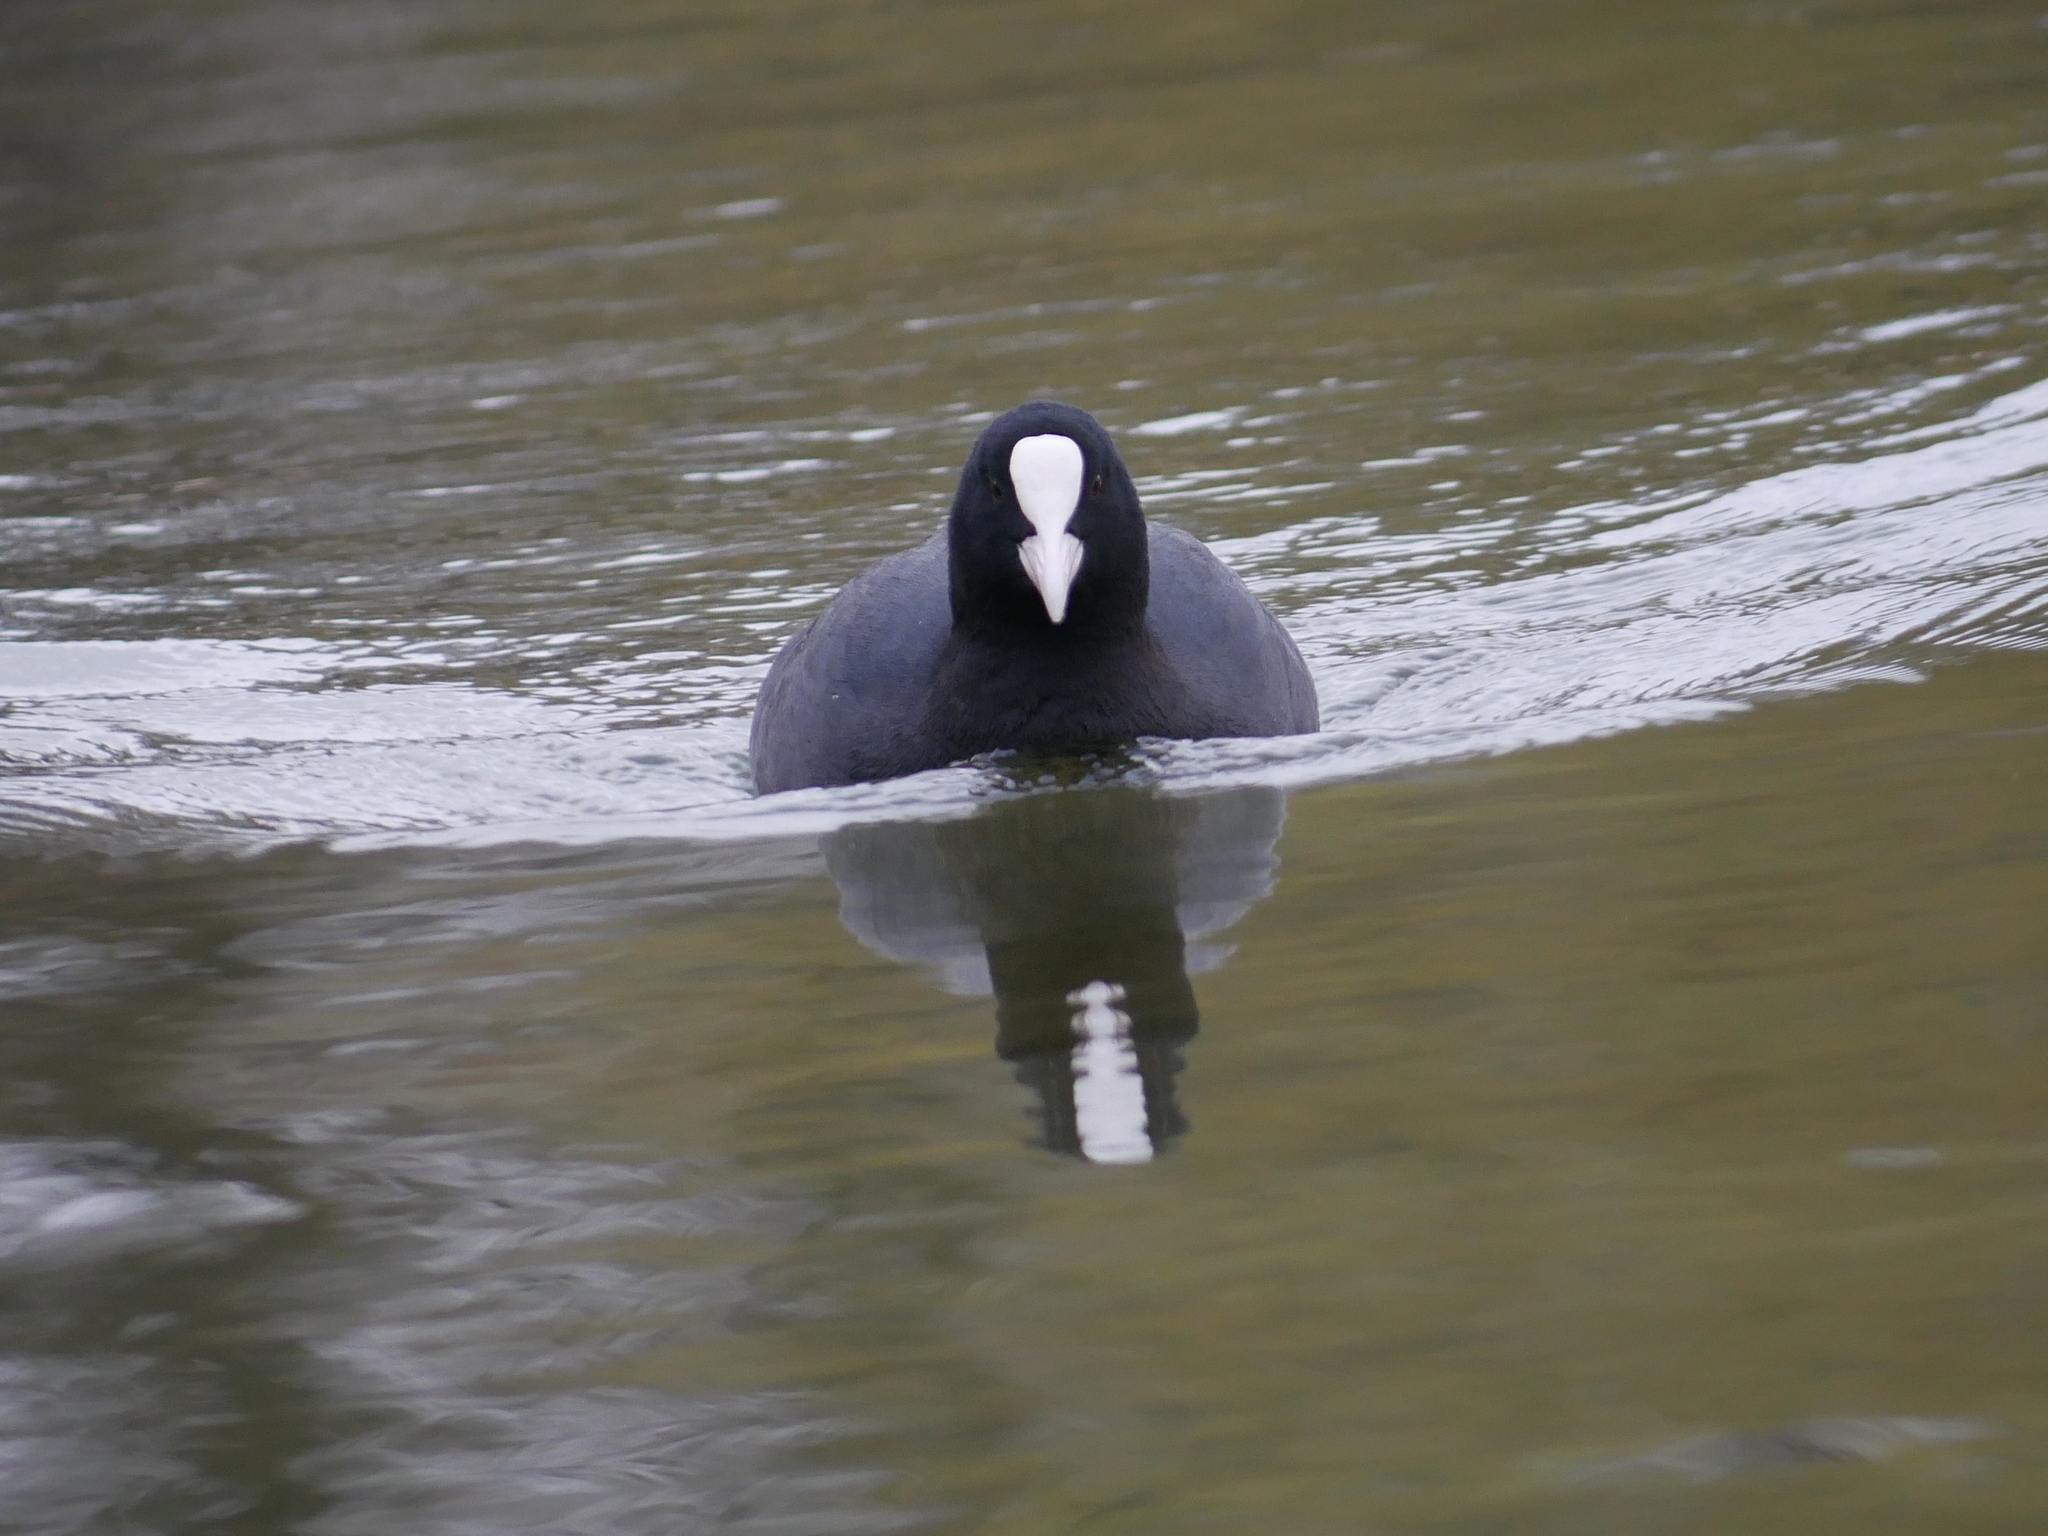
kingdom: Animalia
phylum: Chordata
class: Aves
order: Gruiformes
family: Rallidae
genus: Fulica
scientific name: Fulica atra
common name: Eurasian coot
